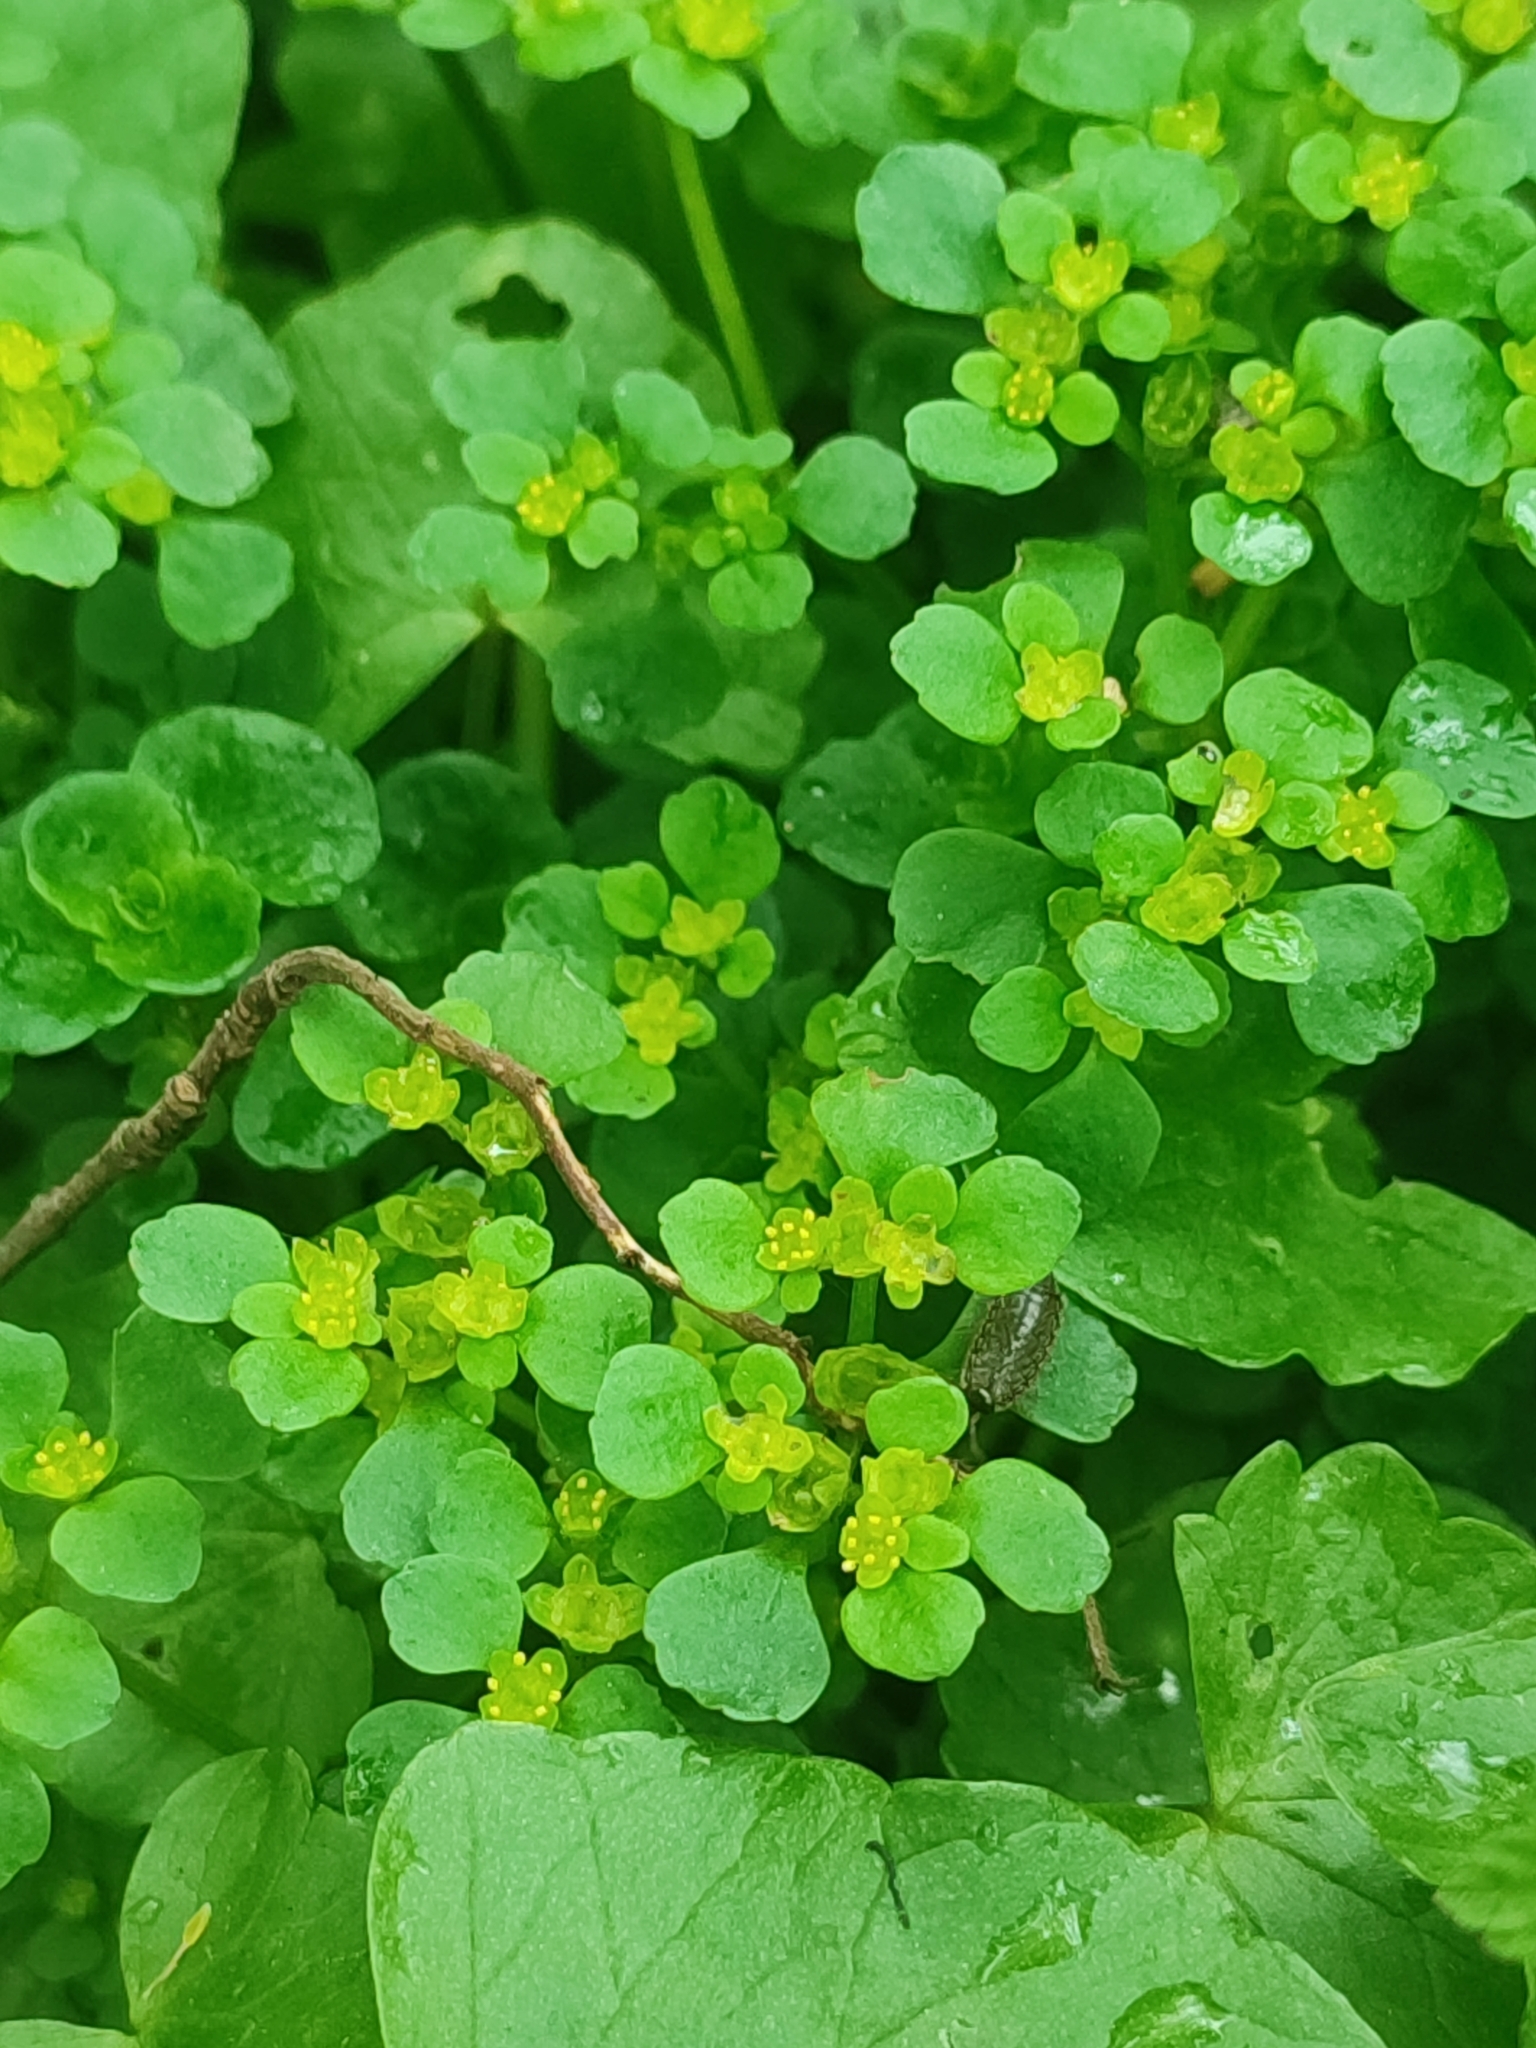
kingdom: Plantae
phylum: Tracheophyta
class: Magnoliopsida
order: Saxifragales
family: Saxifragaceae
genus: Chrysosplenium
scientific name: Chrysosplenium oppositifolium
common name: Opposite-leaved golden-saxifrage
